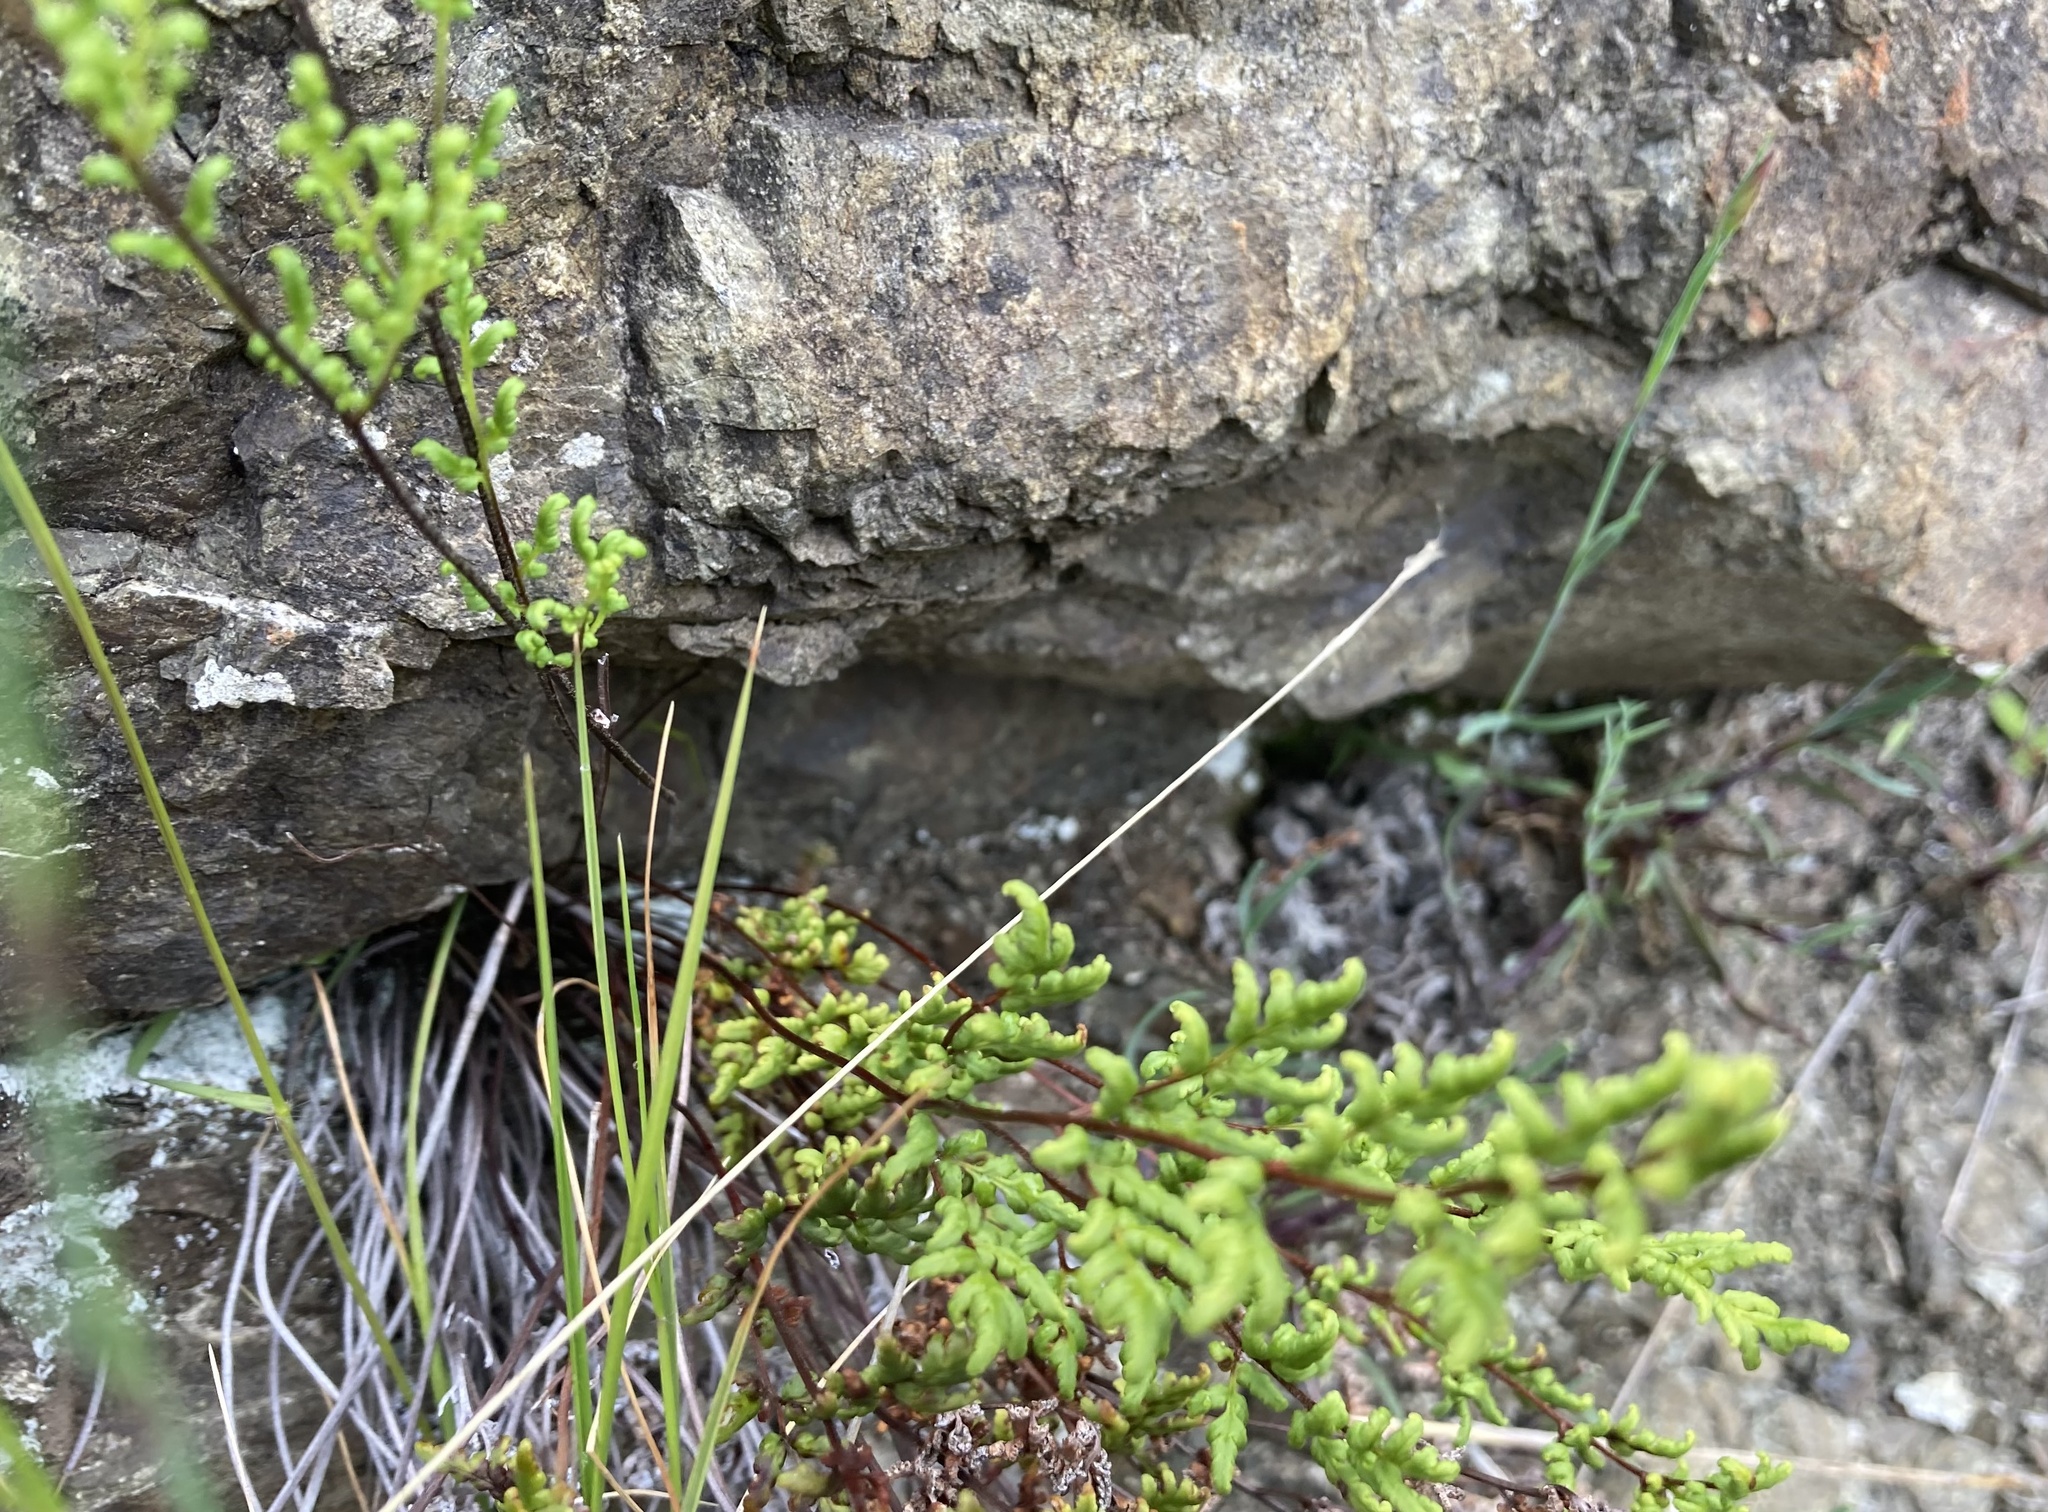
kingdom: Plantae
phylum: Tracheophyta
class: Polypodiopsida
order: Polypodiales
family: Pteridaceae
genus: Cheilanthes
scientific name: Cheilanthes sieberi
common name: Mulga fern
